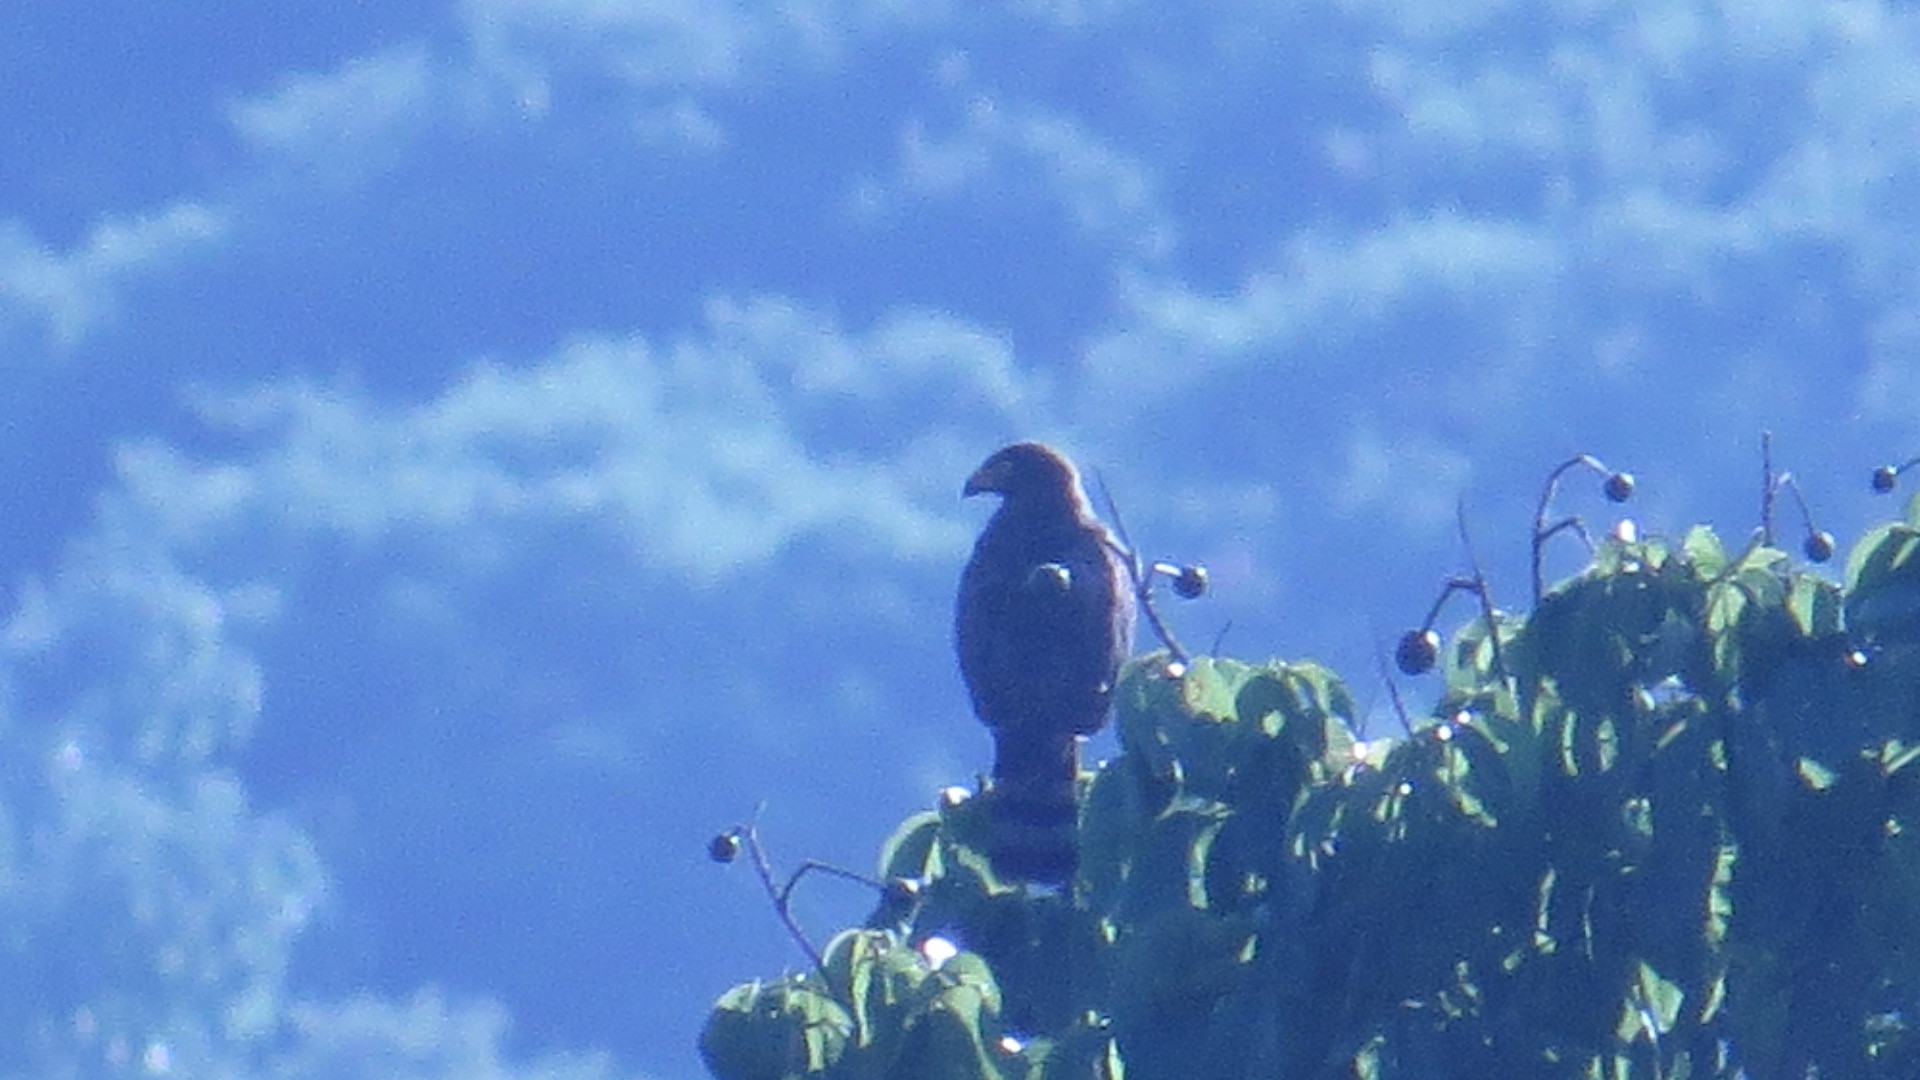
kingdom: Animalia
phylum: Chordata
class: Aves
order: Accipitriformes
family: Accipitridae
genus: Rupornis
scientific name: Rupornis magnirostris
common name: Roadside hawk
